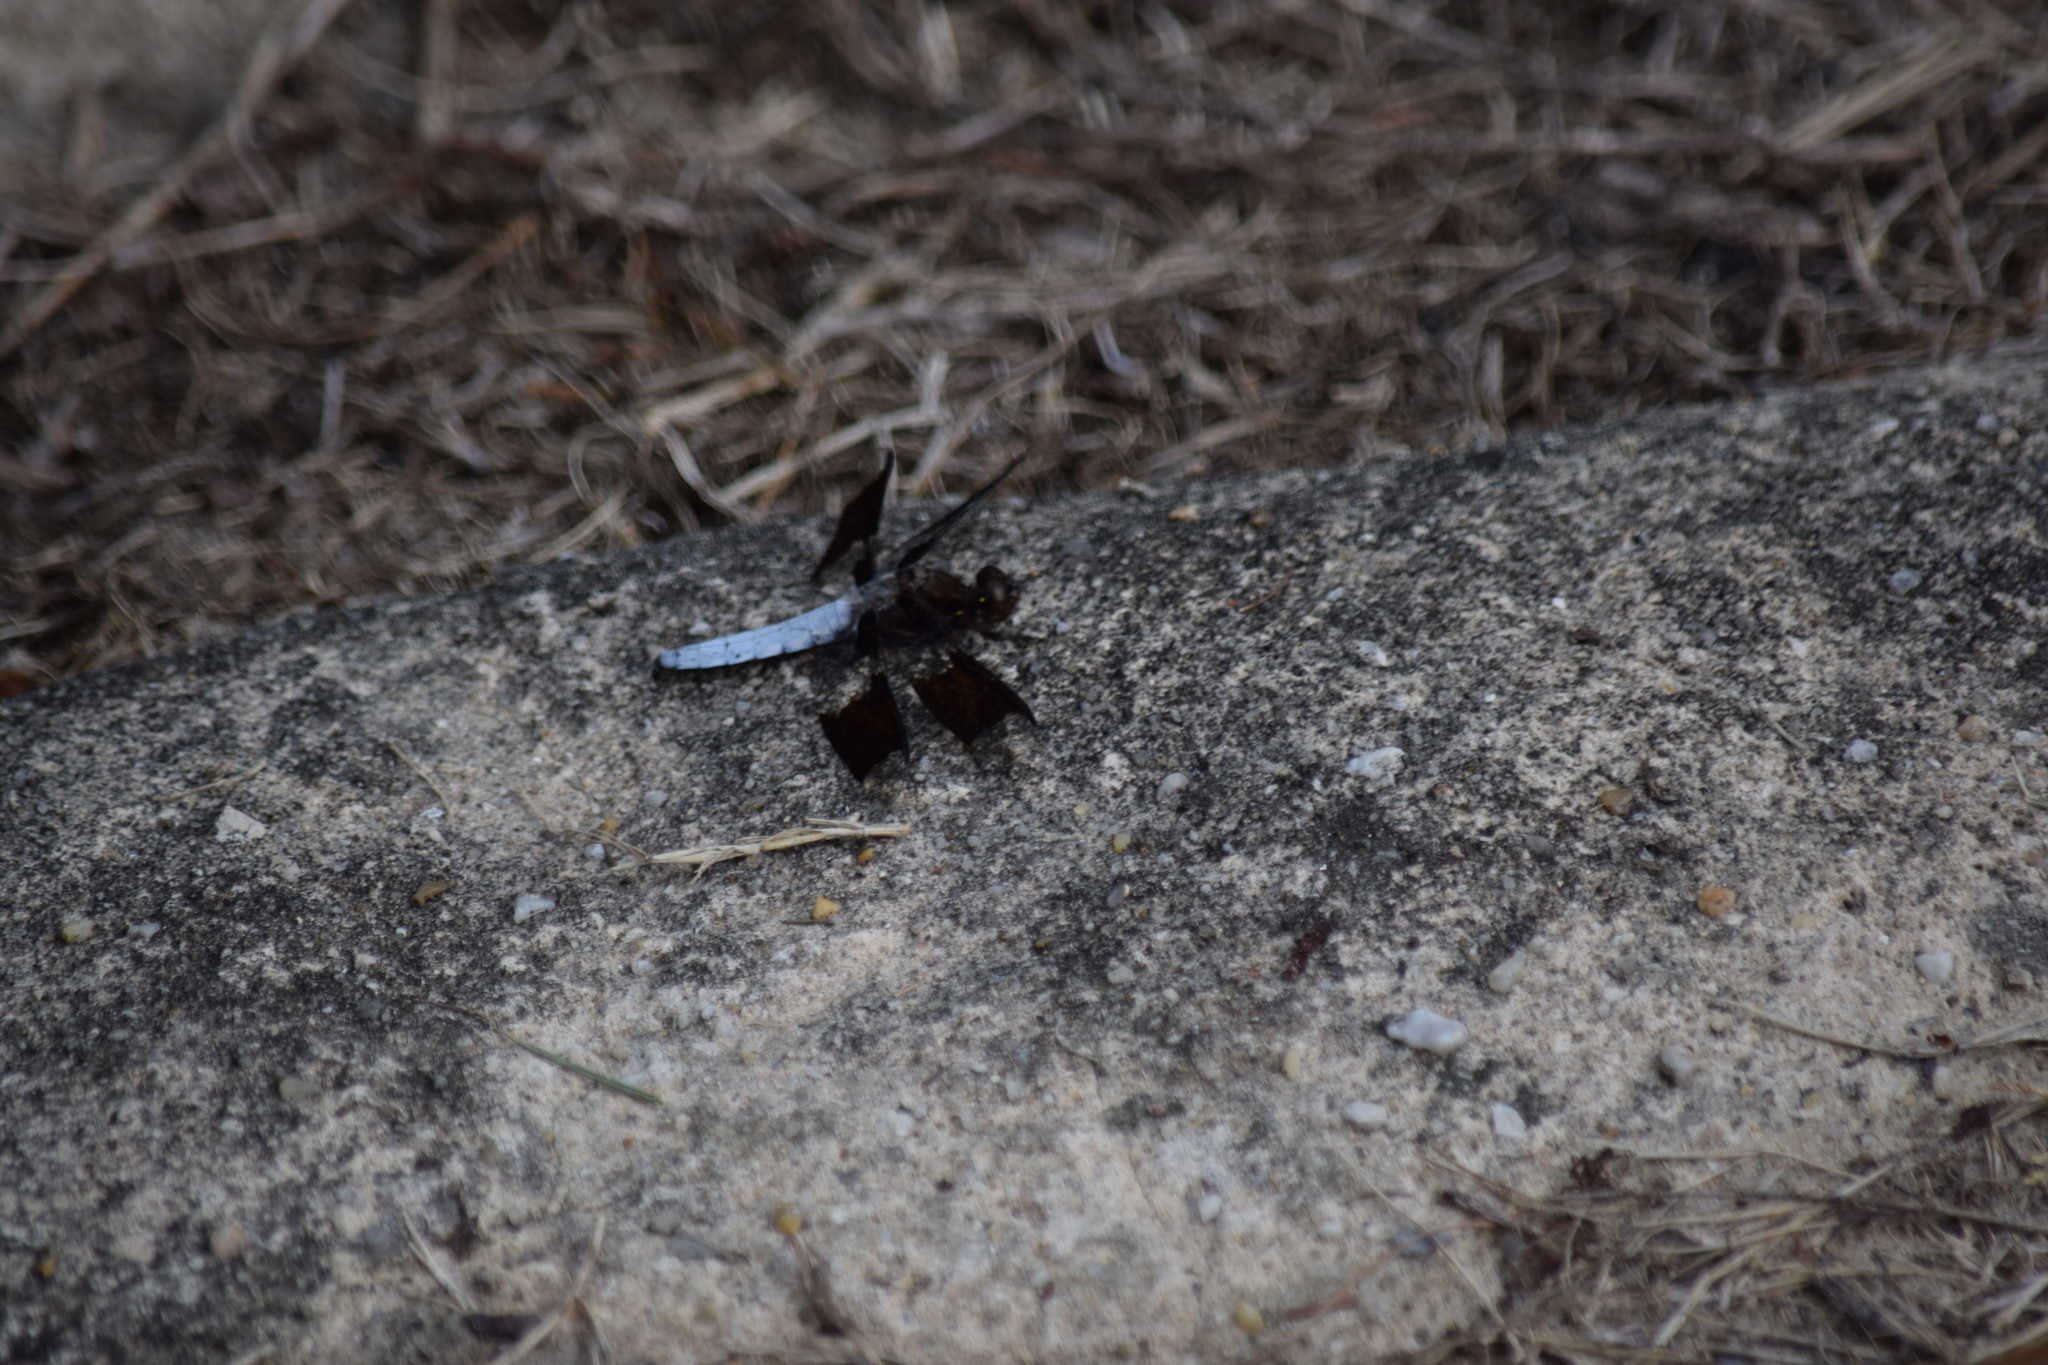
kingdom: Animalia
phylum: Arthropoda
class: Insecta
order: Odonata
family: Libellulidae
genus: Plathemis
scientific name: Plathemis lydia
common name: Common whitetail
